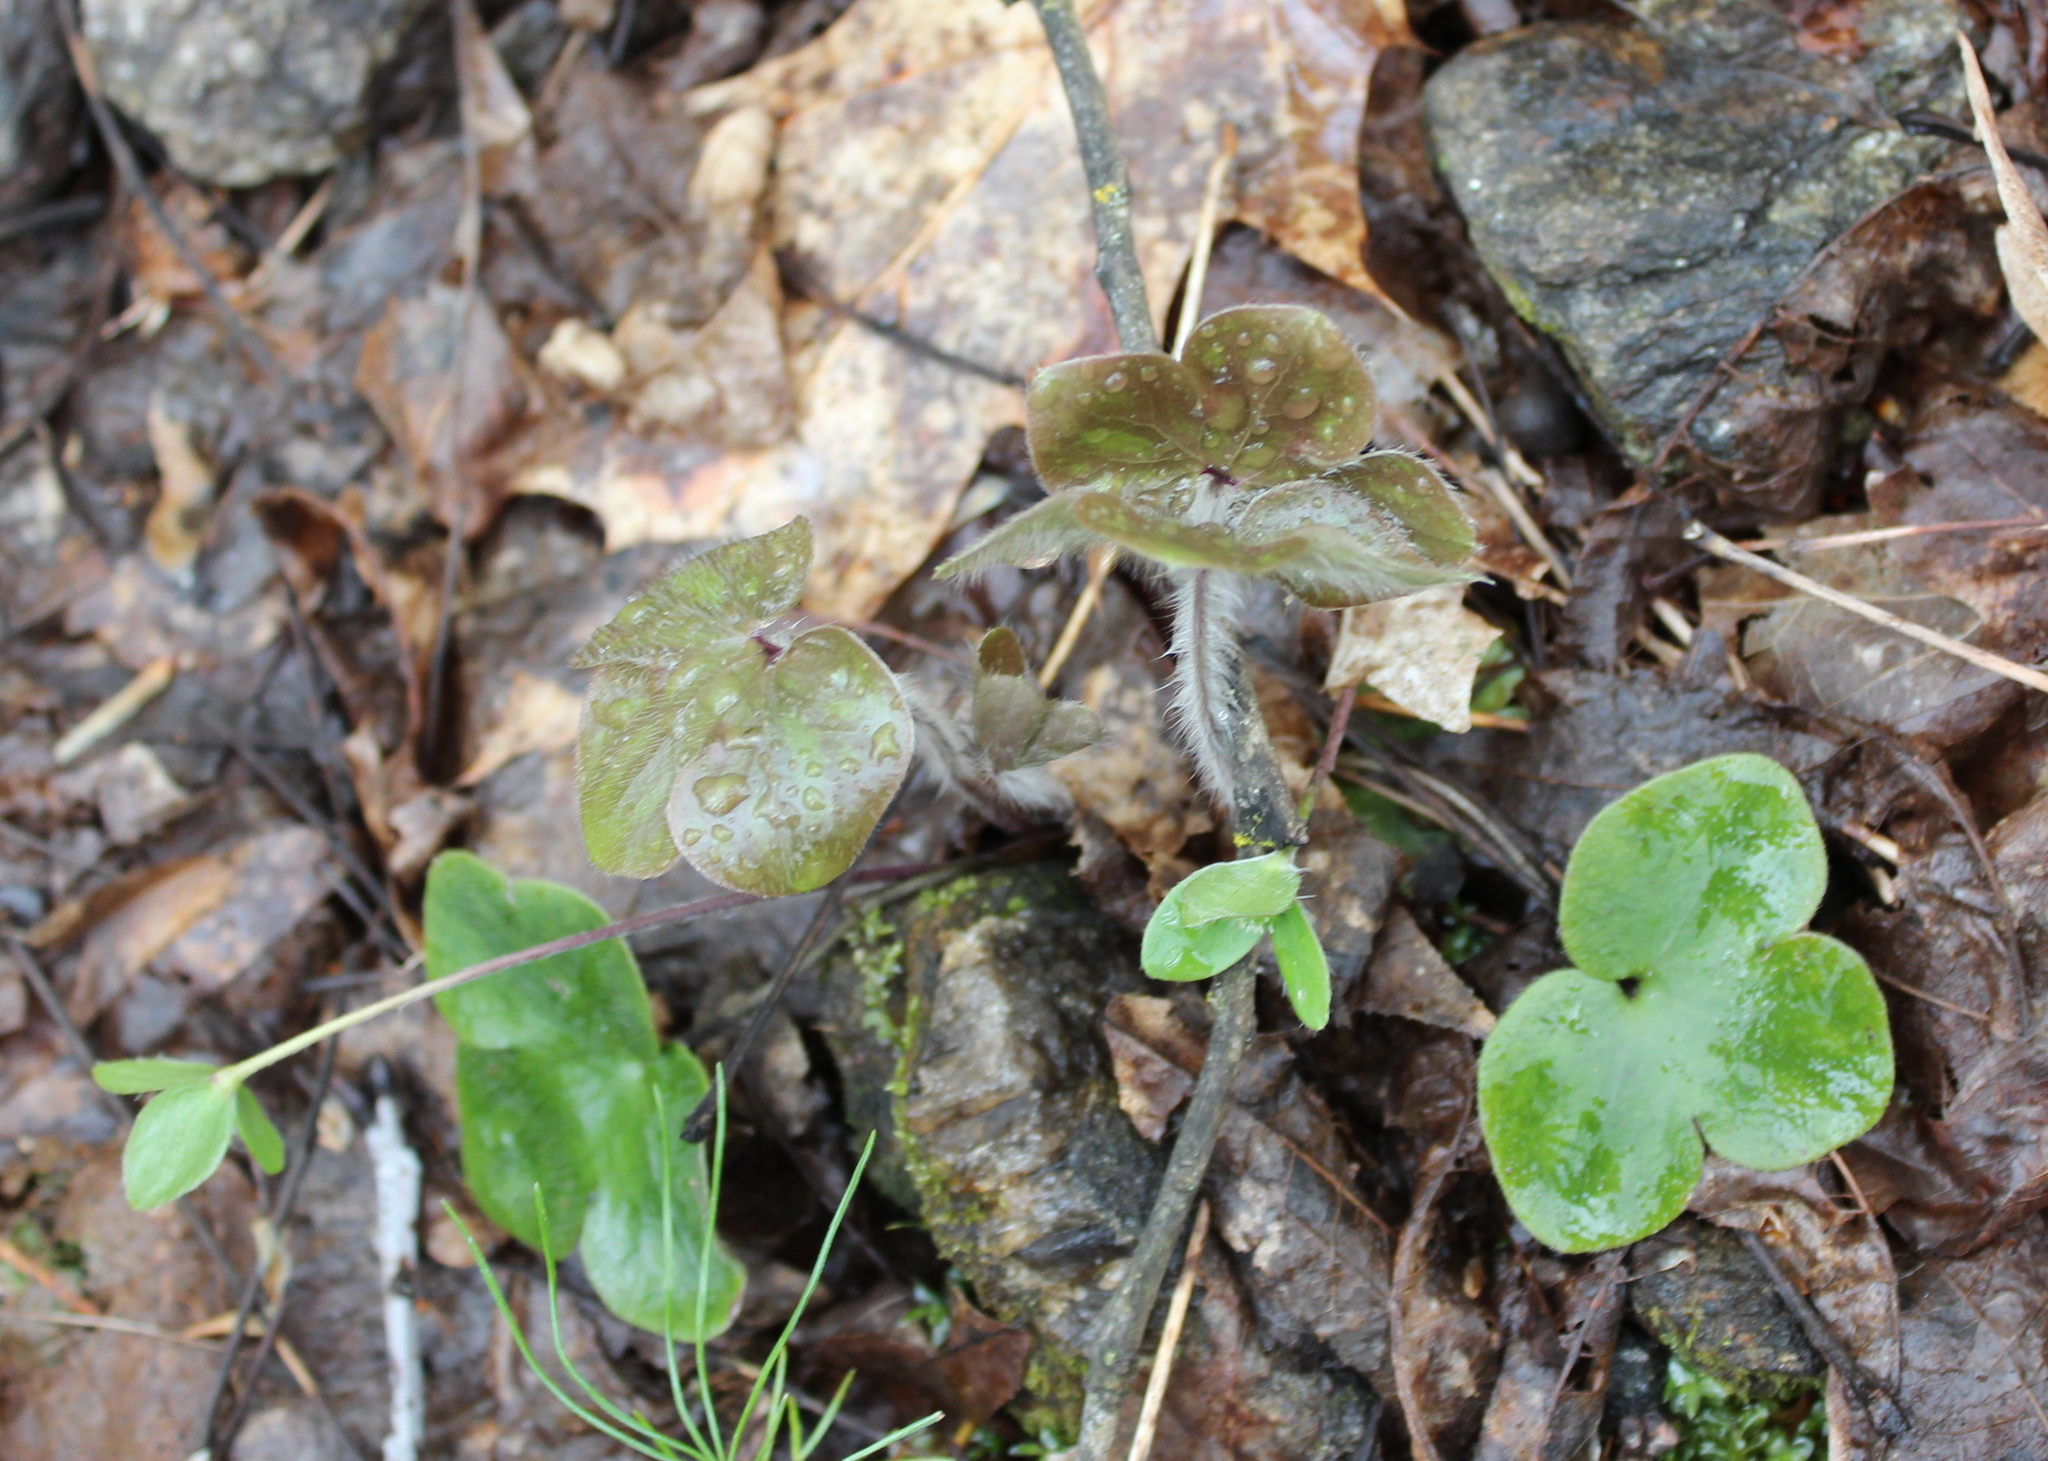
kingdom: Plantae
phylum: Tracheophyta
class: Magnoliopsida
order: Ranunculales
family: Ranunculaceae
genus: Hepatica
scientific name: Hepatica americana
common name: American hepatica
